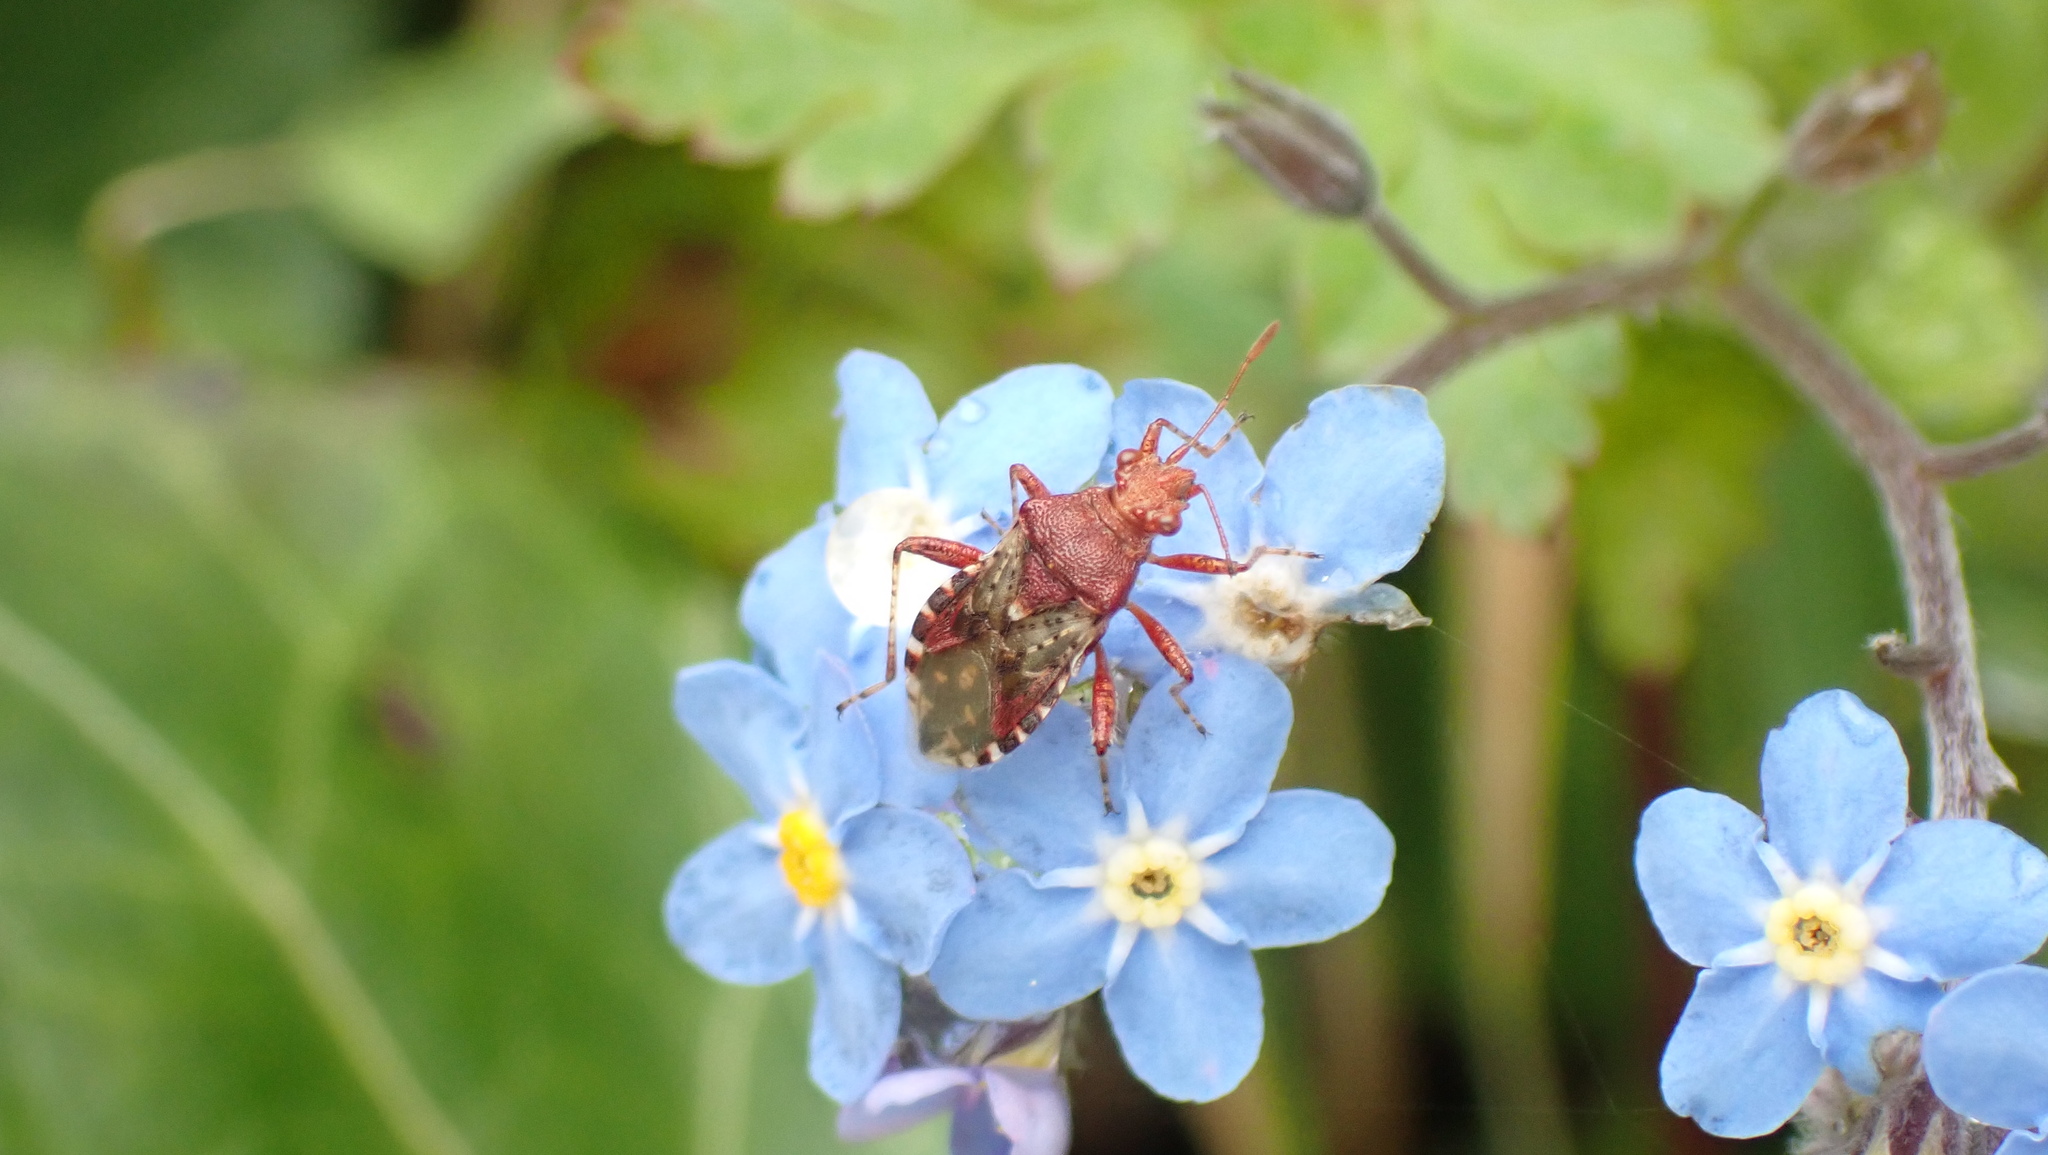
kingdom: Animalia
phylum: Arthropoda
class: Insecta
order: Hemiptera
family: Rhopalidae
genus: Rhopalus
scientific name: Rhopalus subrufus
